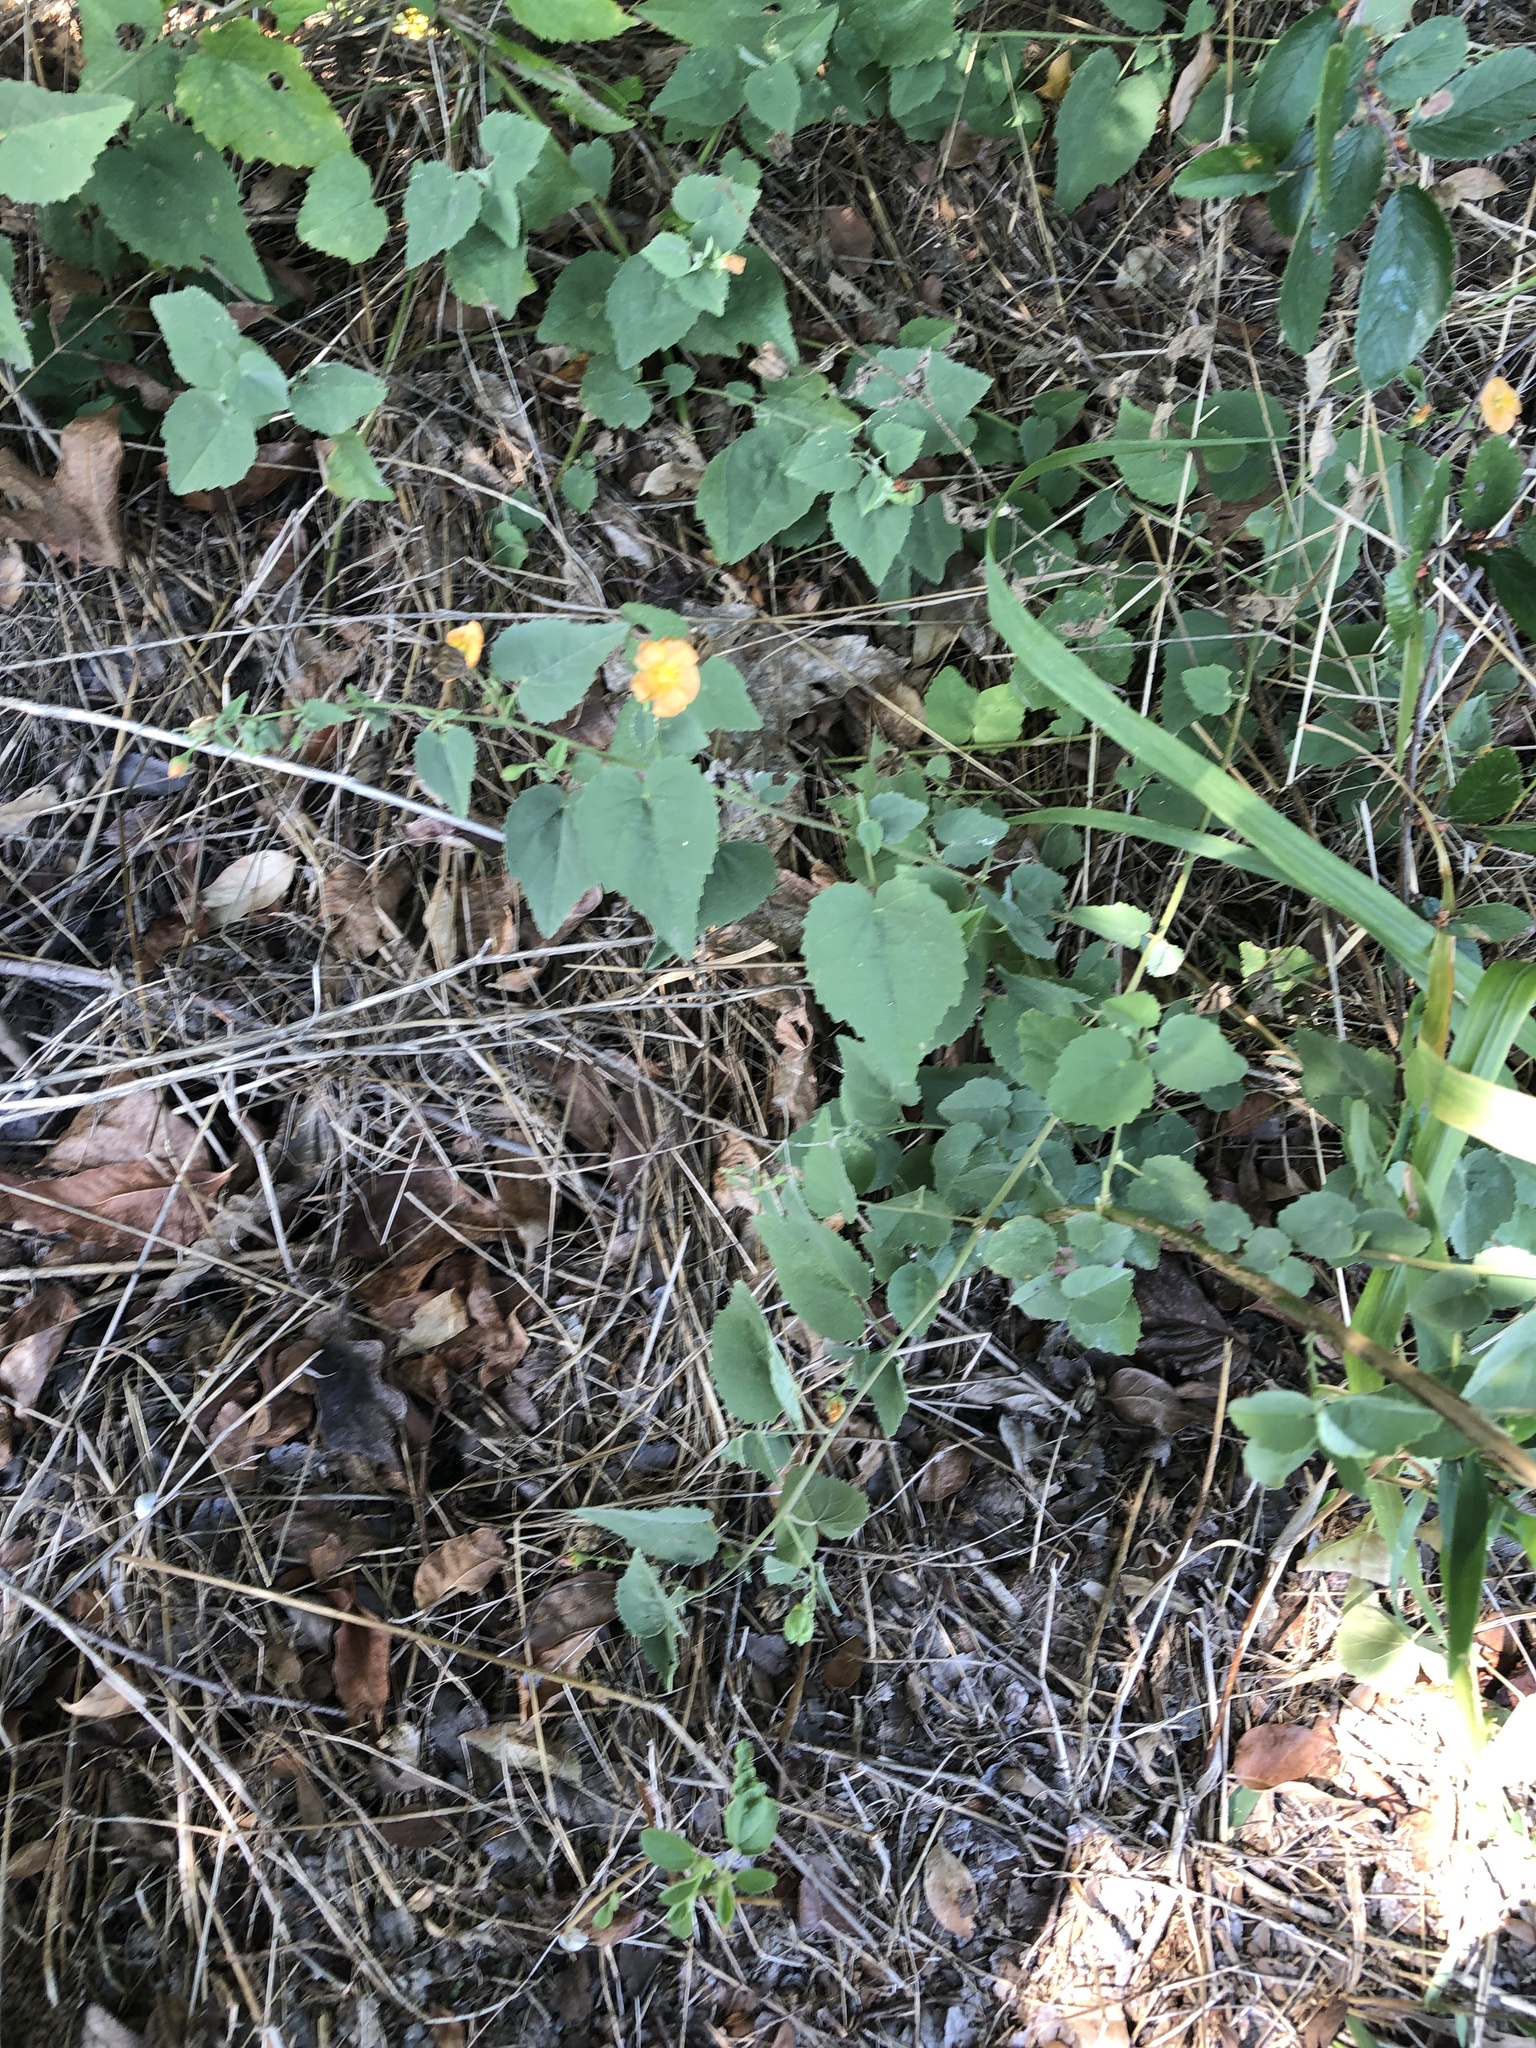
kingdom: Plantae
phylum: Tracheophyta
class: Magnoliopsida
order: Malvales
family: Malvaceae
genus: Abutilon
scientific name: Abutilon fruticosum
